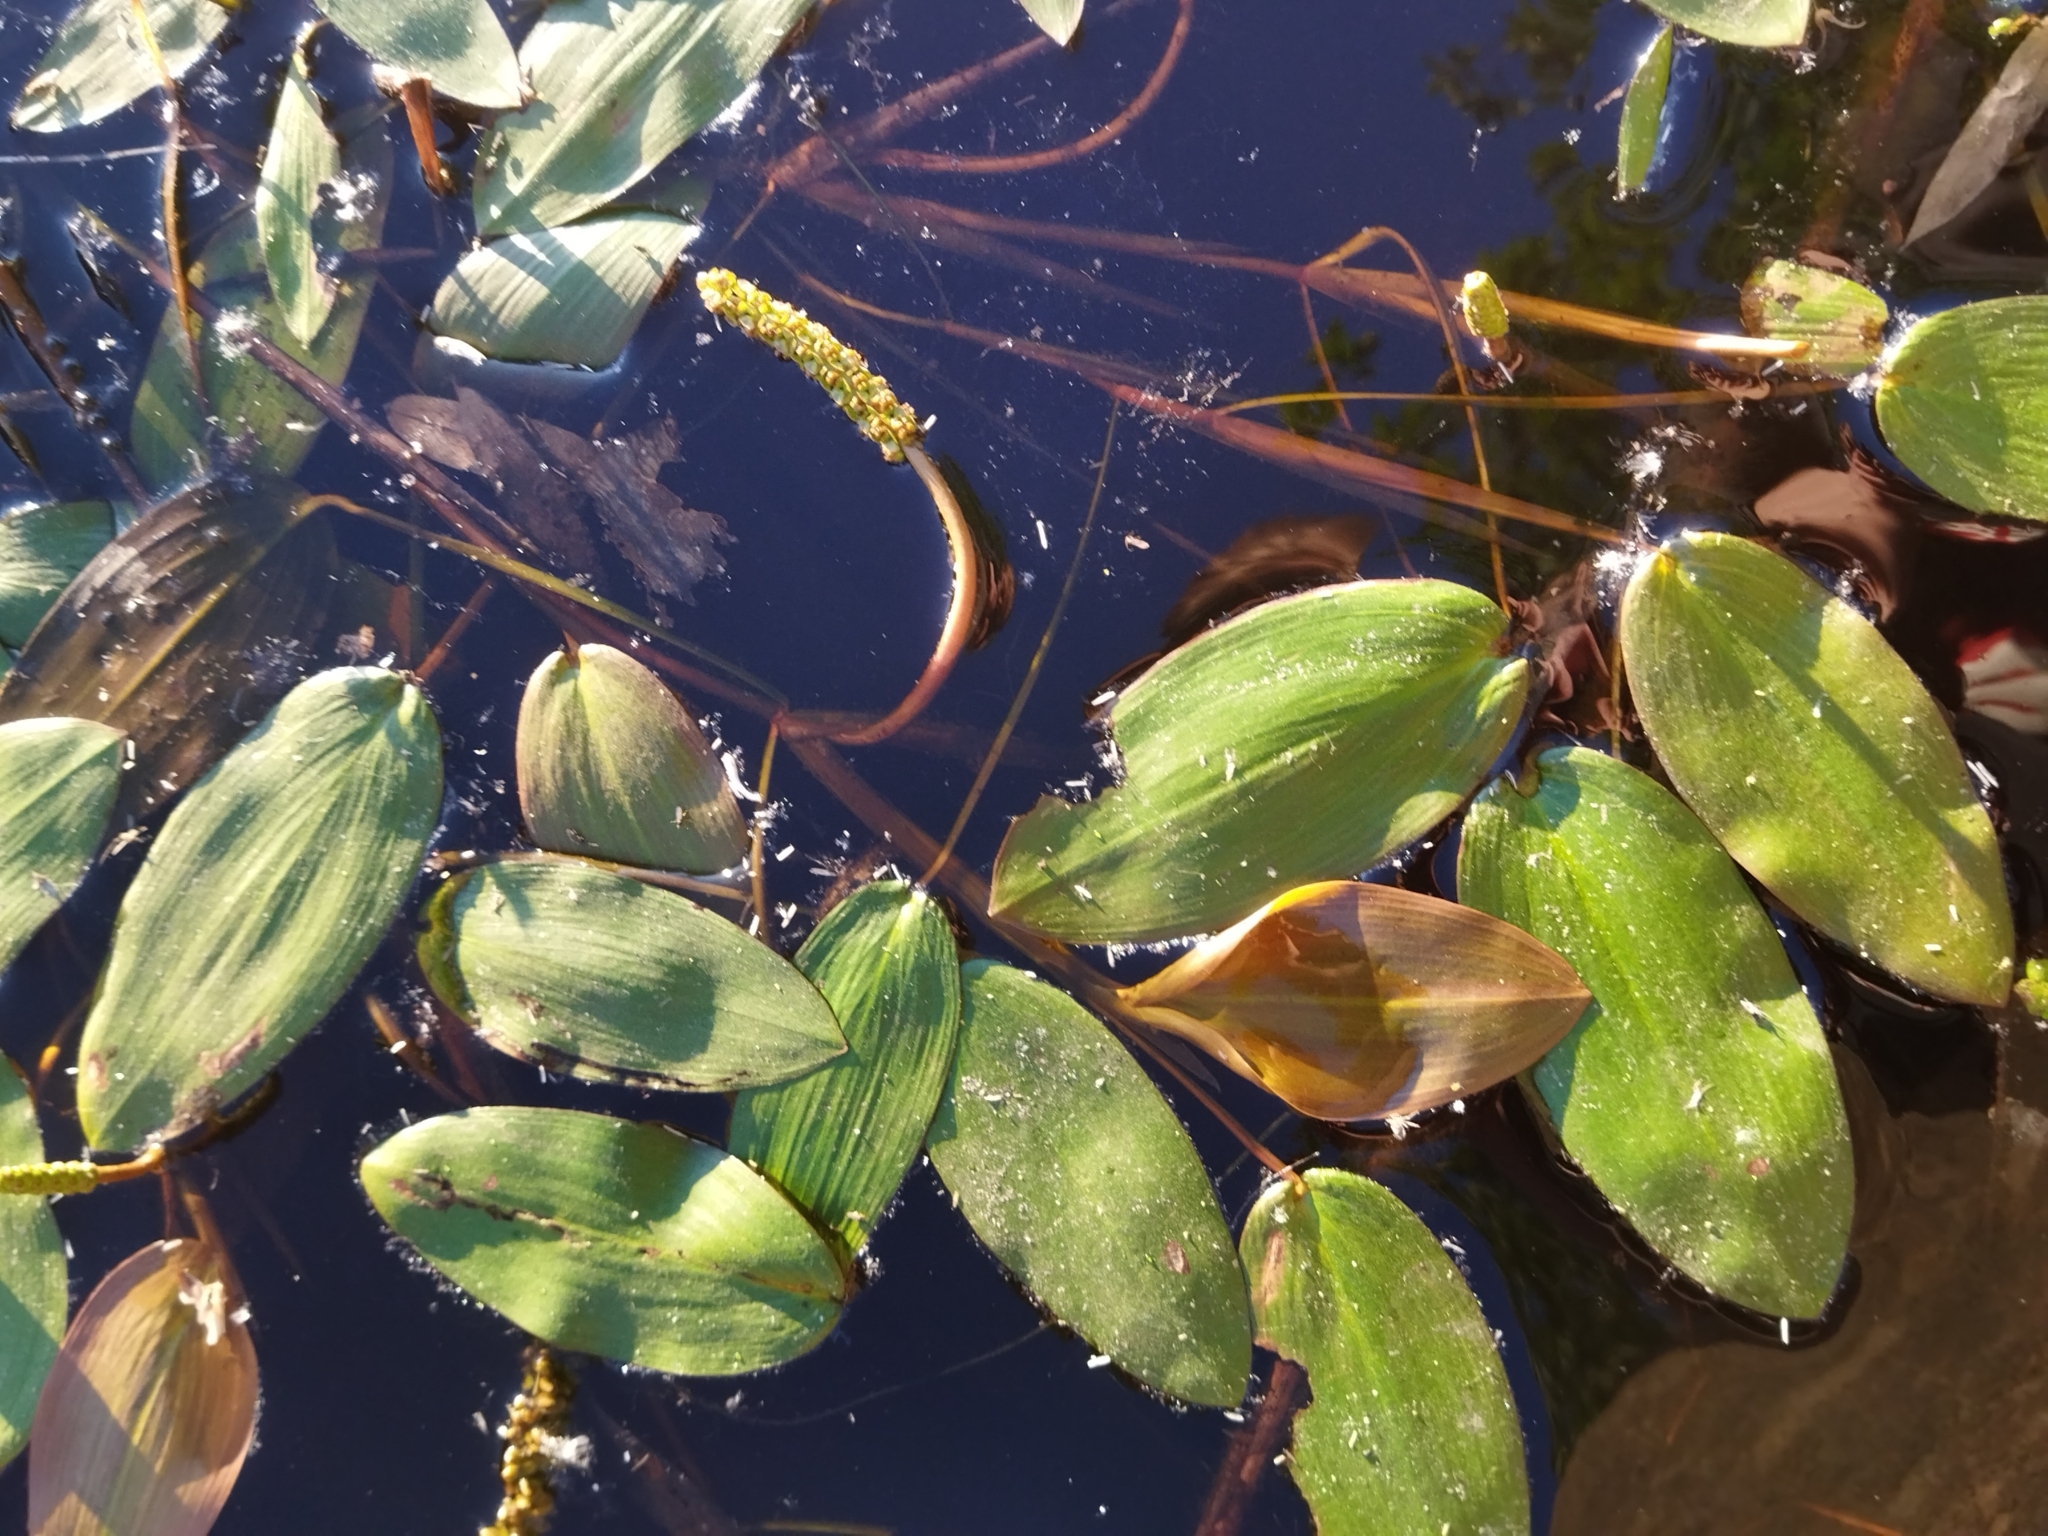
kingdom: Plantae
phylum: Tracheophyta
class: Liliopsida
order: Alismatales
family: Potamogetonaceae
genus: Potamogeton
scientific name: Potamogeton natans
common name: Broad-leaved pondweed
